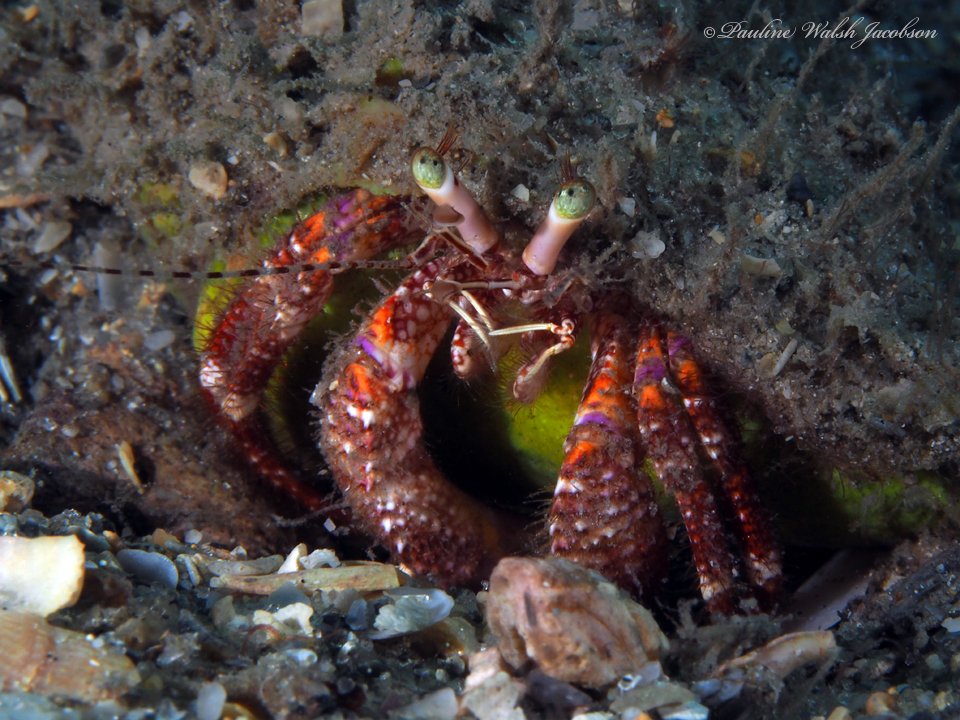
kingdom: Animalia
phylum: Arthropoda
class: Malacostraca
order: Decapoda
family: Diogenidae
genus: Petrochirus
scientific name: Petrochirus diogenes
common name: Giant hermit crab
